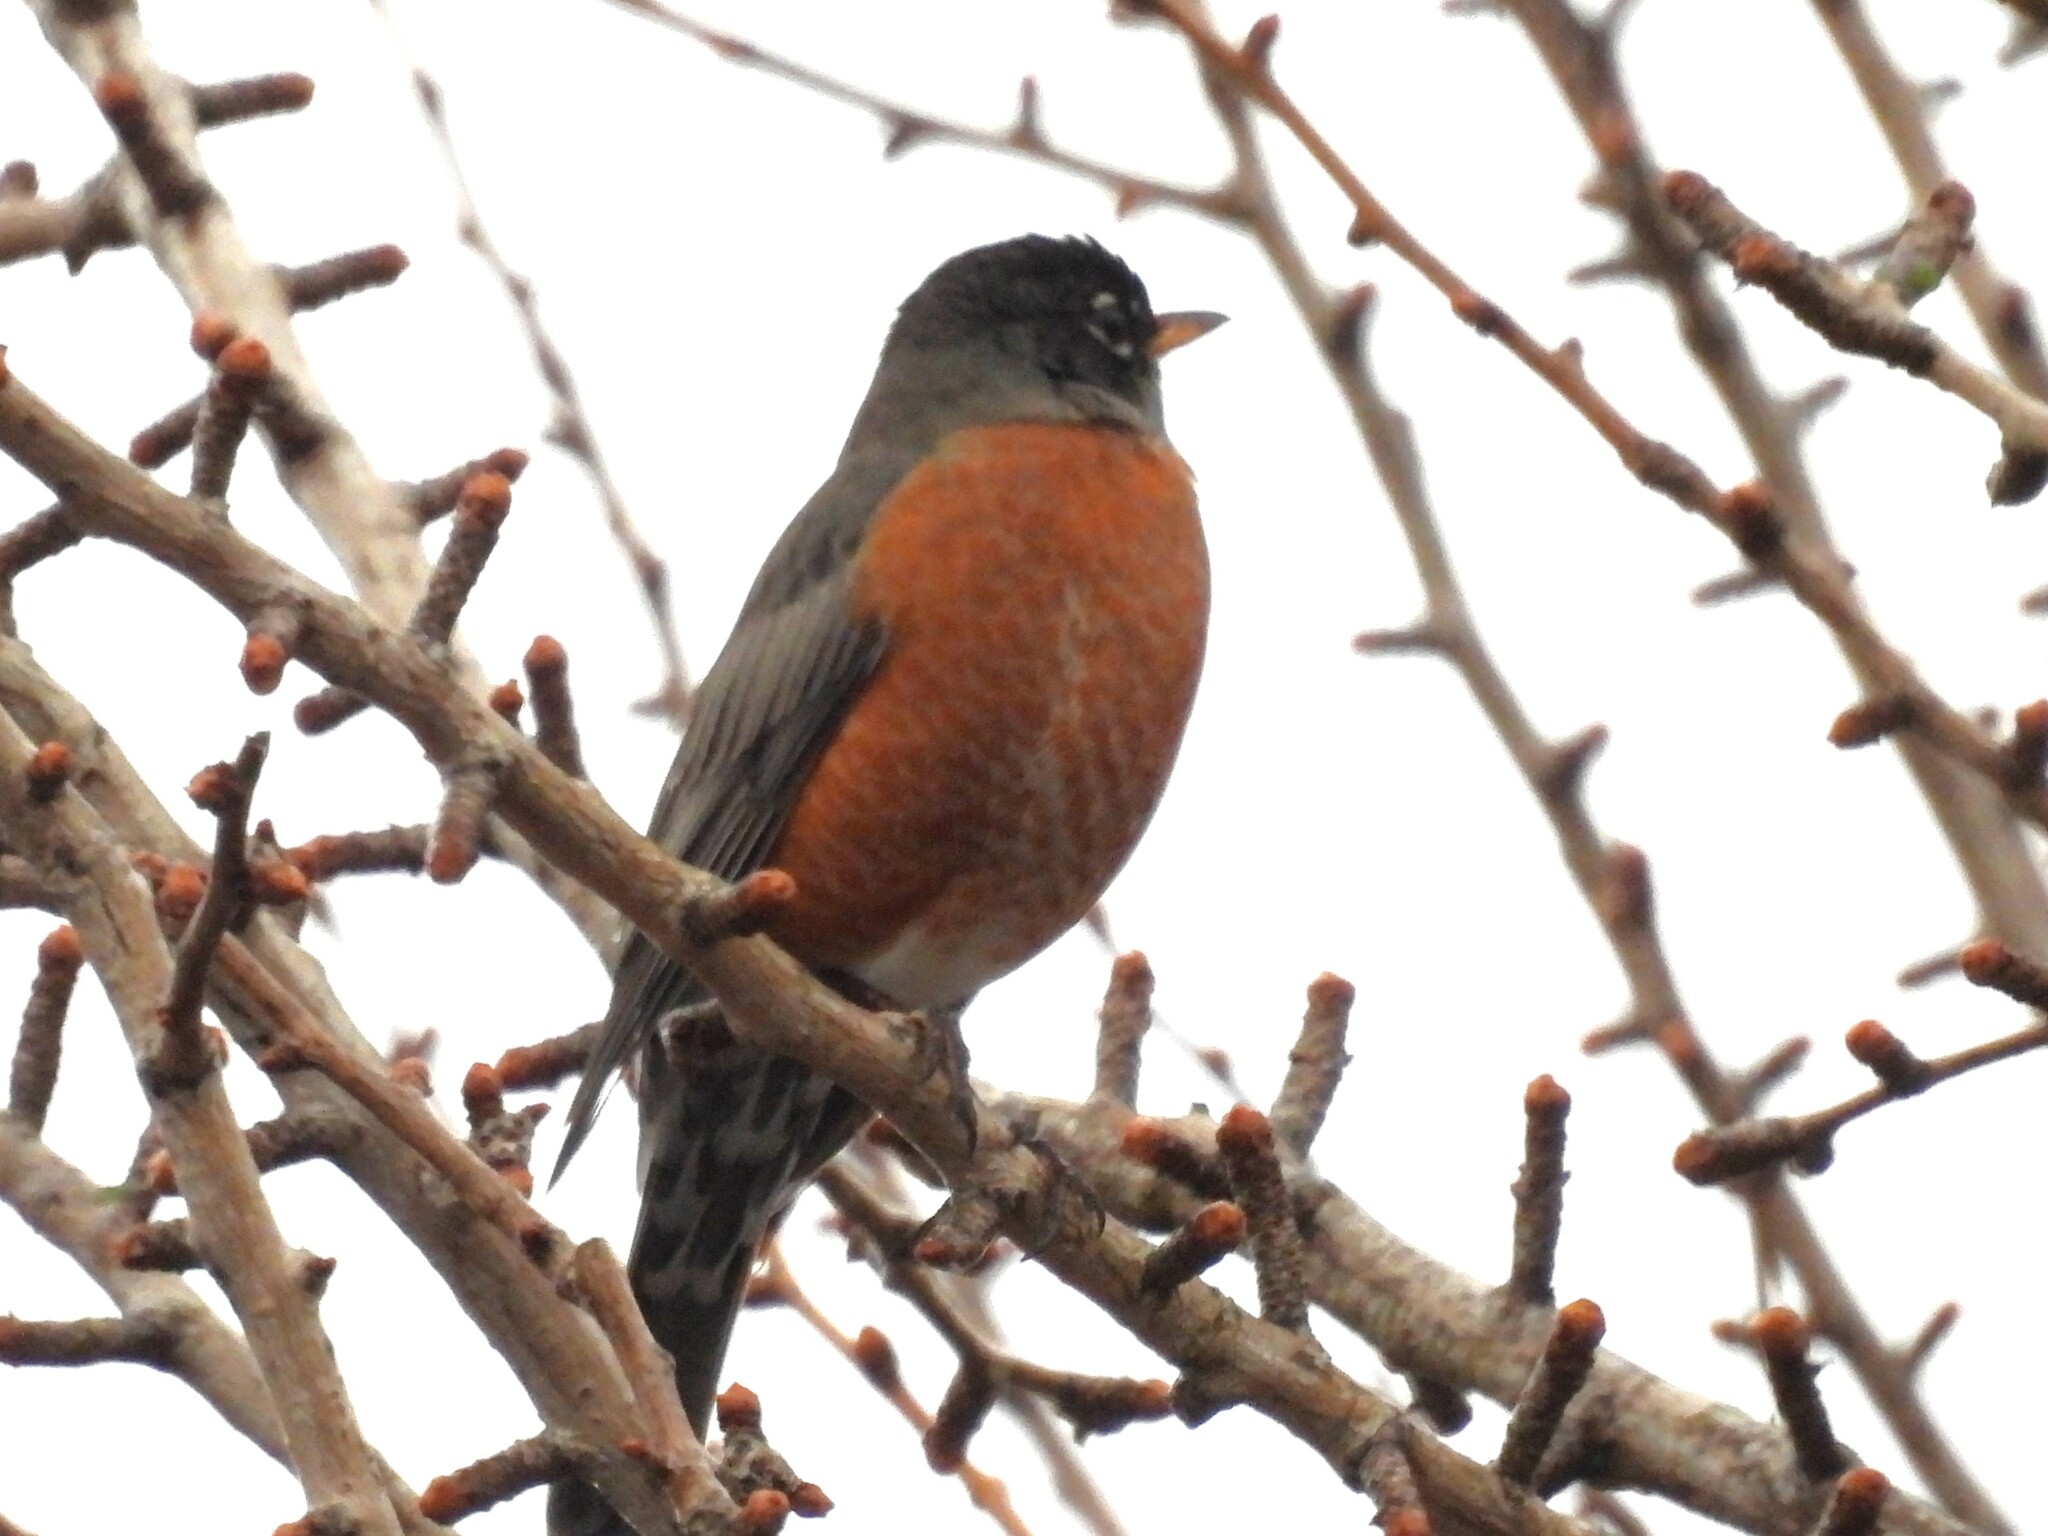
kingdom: Animalia
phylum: Chordata
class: Aves
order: Passeriformes
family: Turdidae
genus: Turdus
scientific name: Turdus migratorius
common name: American robin
